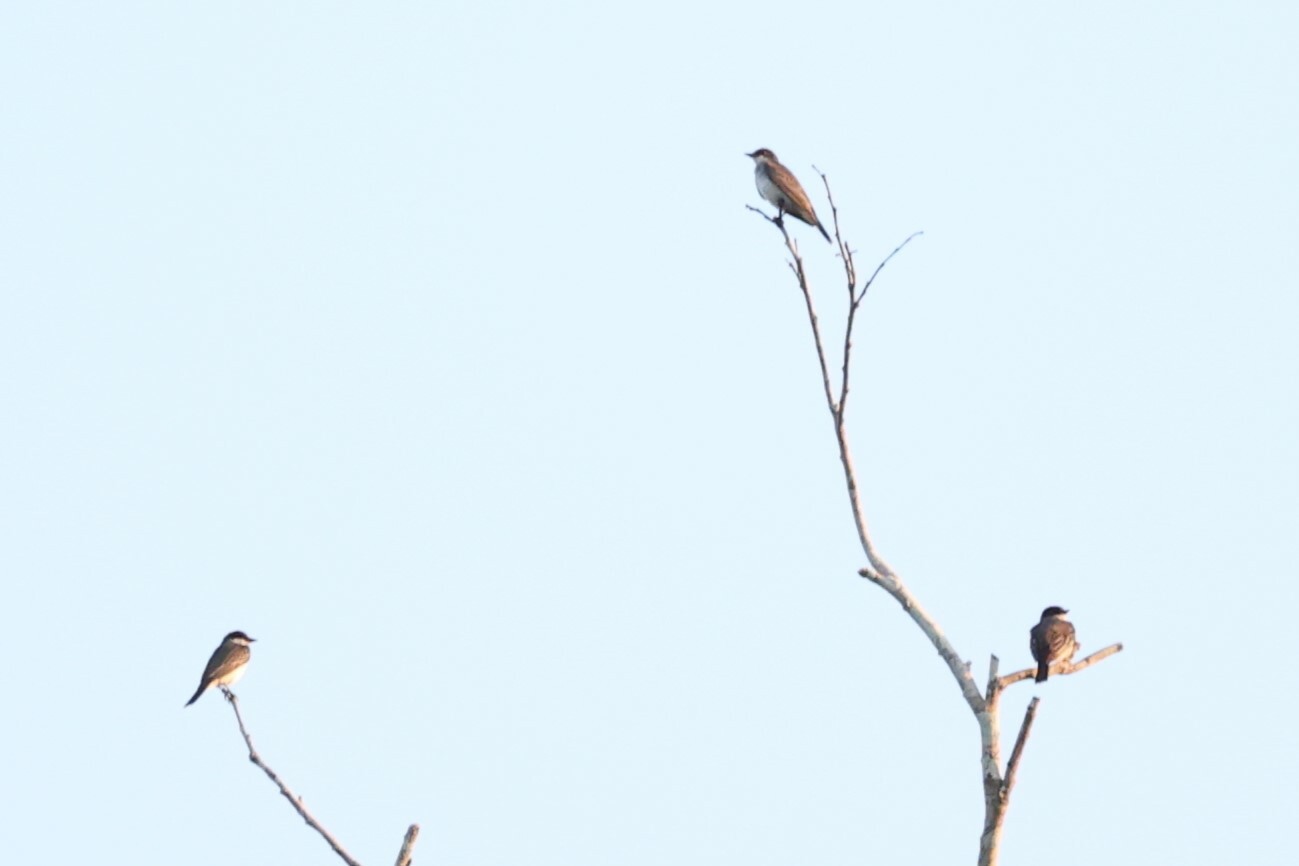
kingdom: Animalia
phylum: Chordata
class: Aves
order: Passeriformes
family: Tyrannidae
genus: Tyrannus
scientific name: Tyrannus tyrannus
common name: Eastern kingbird
